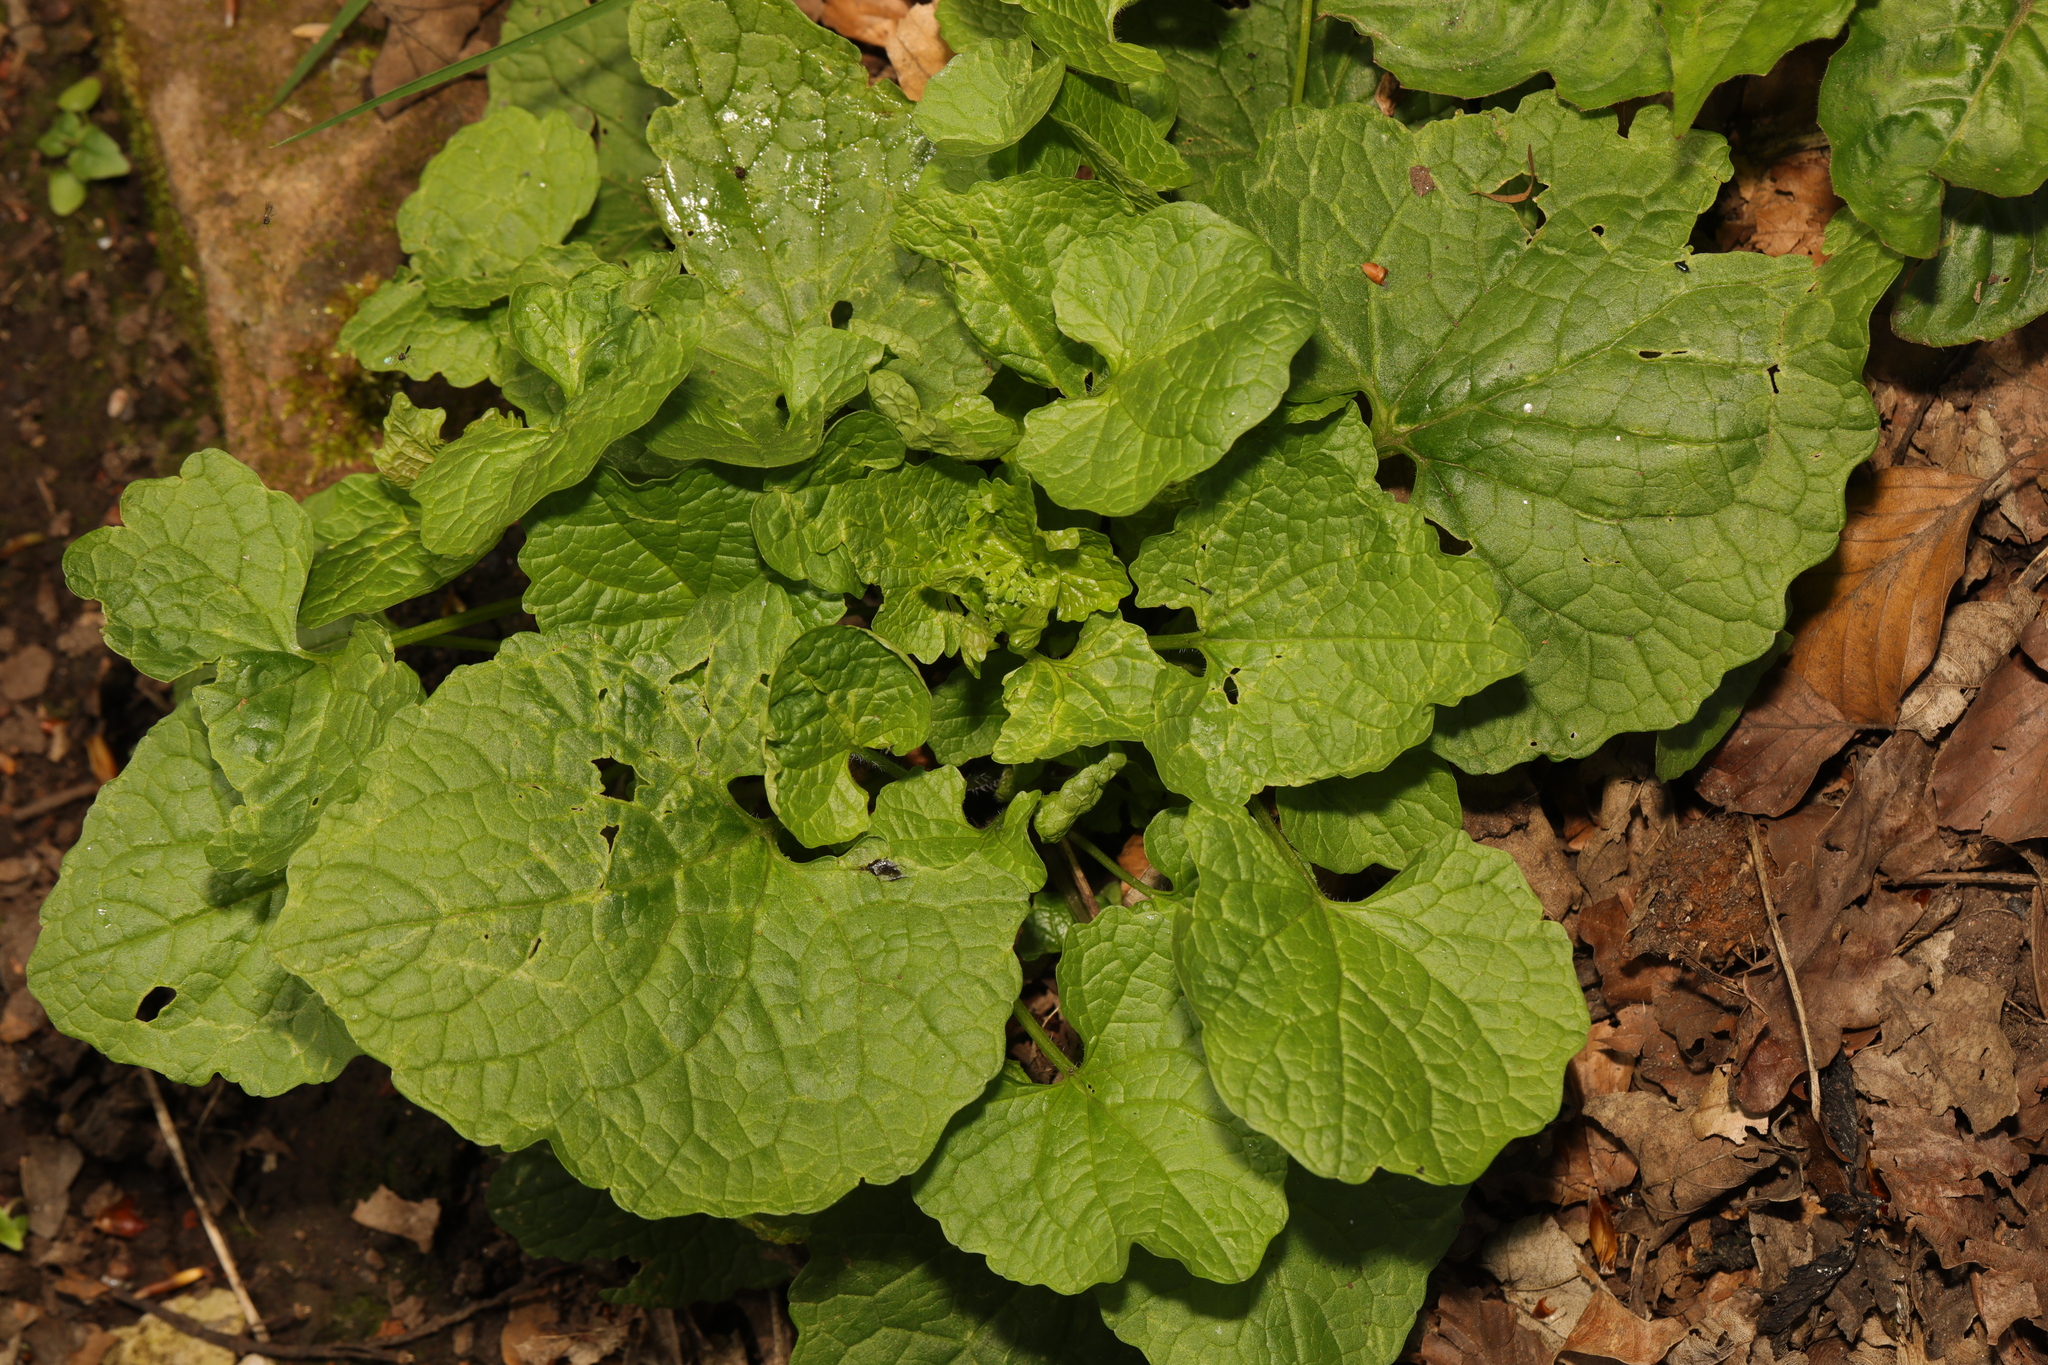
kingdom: Plantae
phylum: Tracheophyta
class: Magnoliopsida
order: Brassicales
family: Brassicaceae
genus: Alliaria
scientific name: Alliaria petiolata
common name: Garlic mustard
